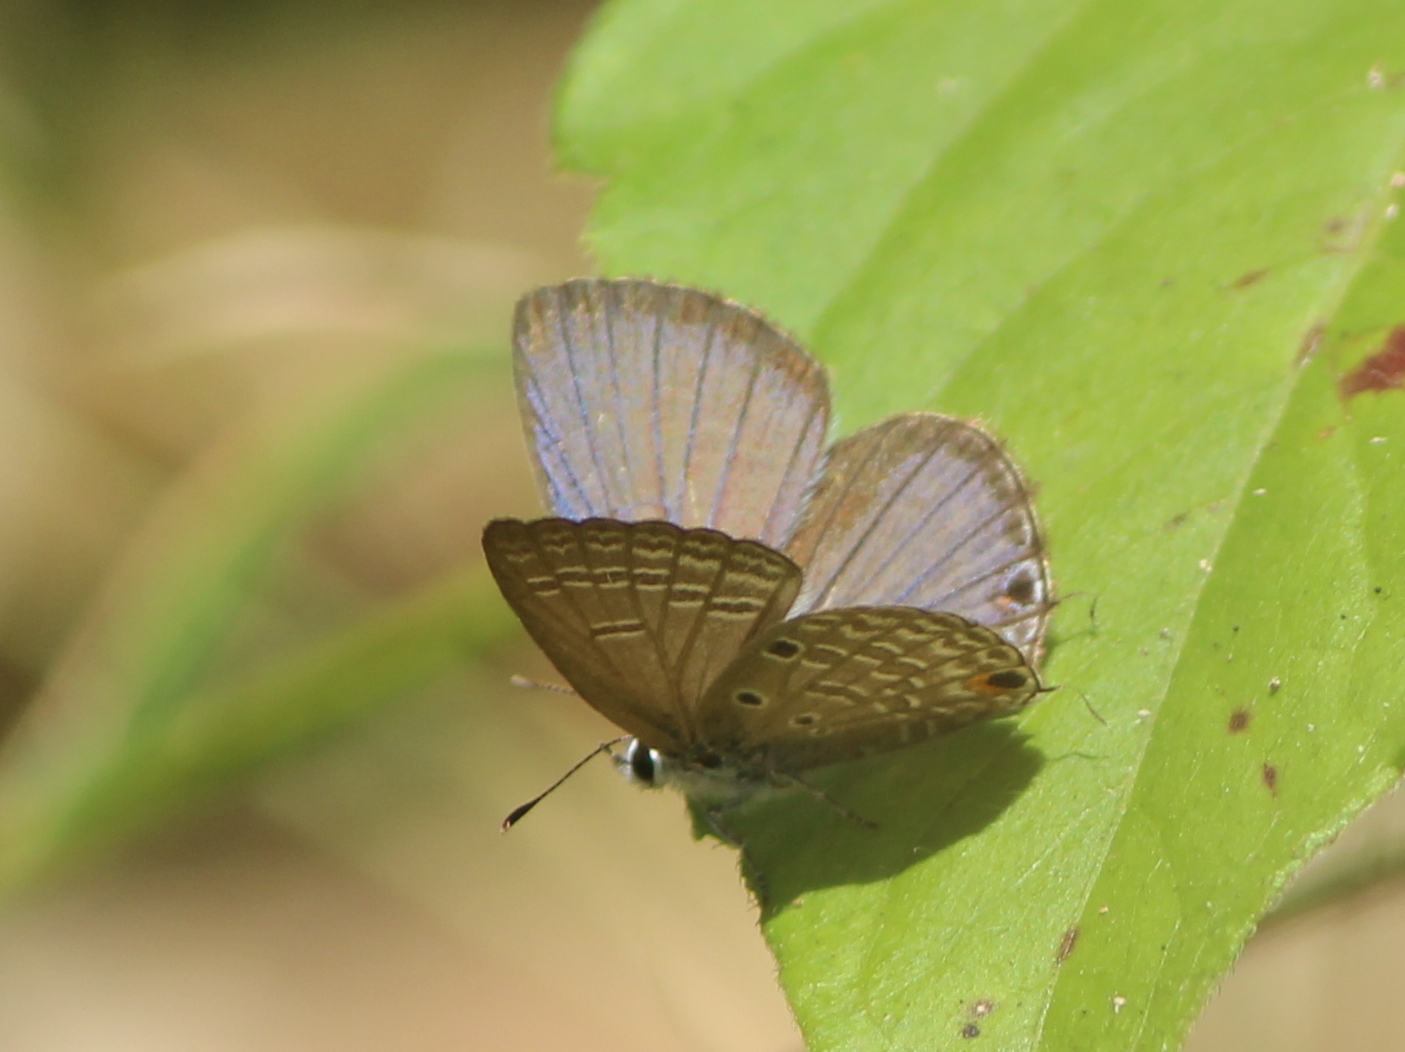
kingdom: Animalia
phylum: Arthropoda
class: Insecta
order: Lepidoptera
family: Lycaenidae
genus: Luthrodes
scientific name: Luthrodes pandava
